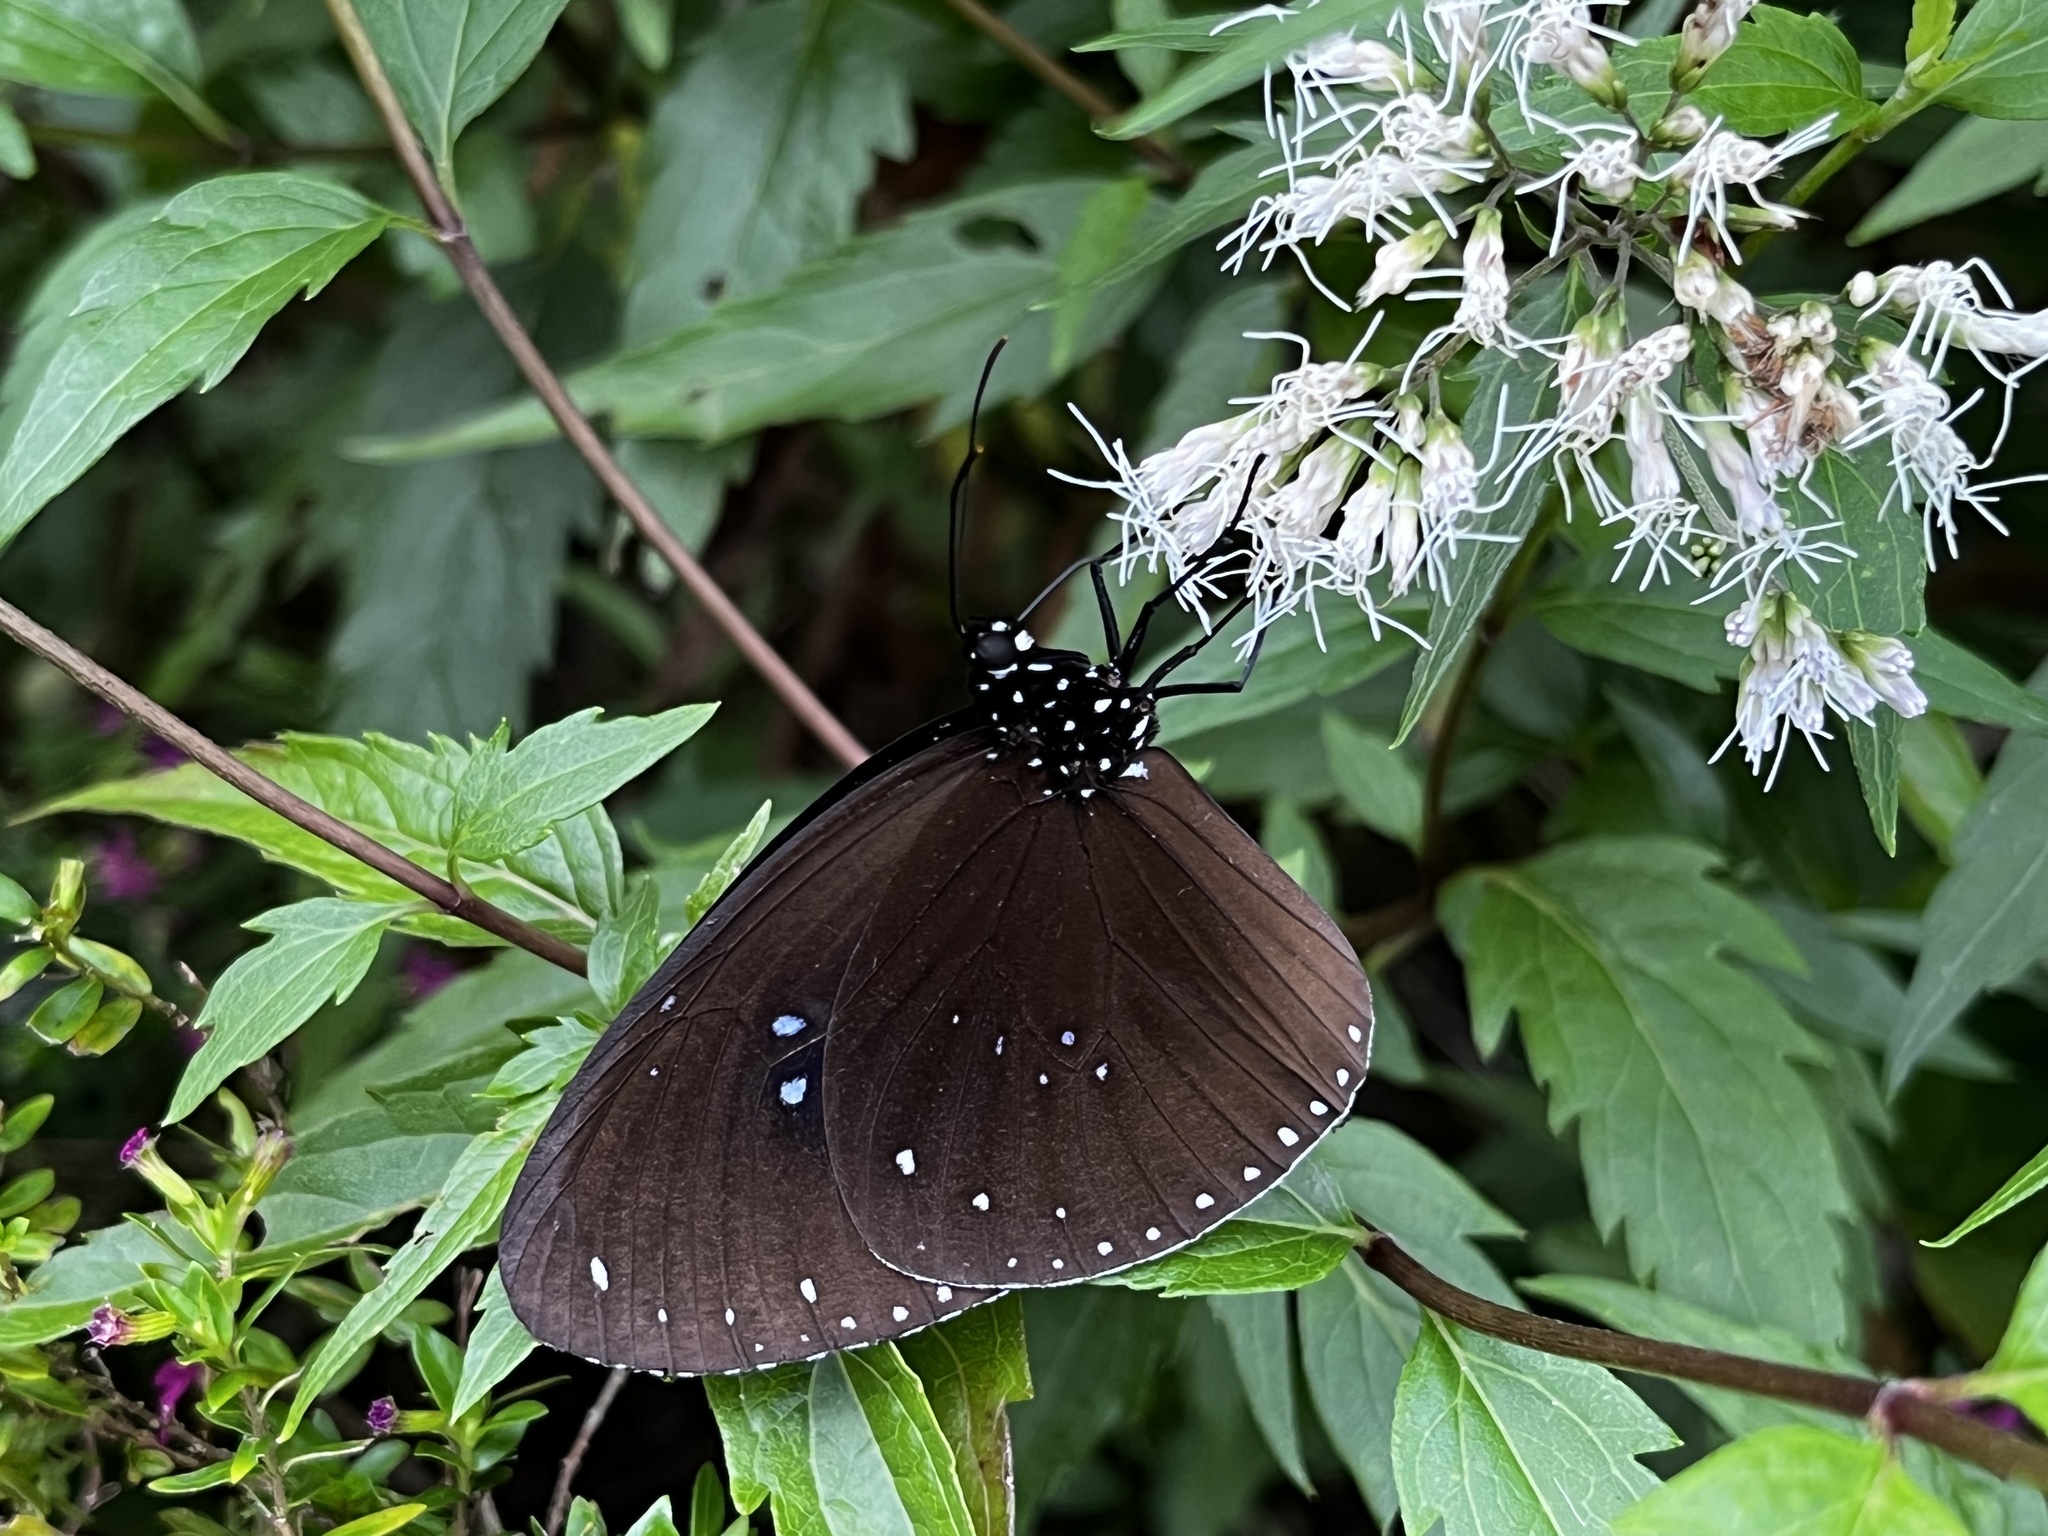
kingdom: Animalia
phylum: Arthropoda
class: Insecta
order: Lepidoptera
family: Nymphalidae
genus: Euploea
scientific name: Euploea sylvester
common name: Double-branded crow butterfly
